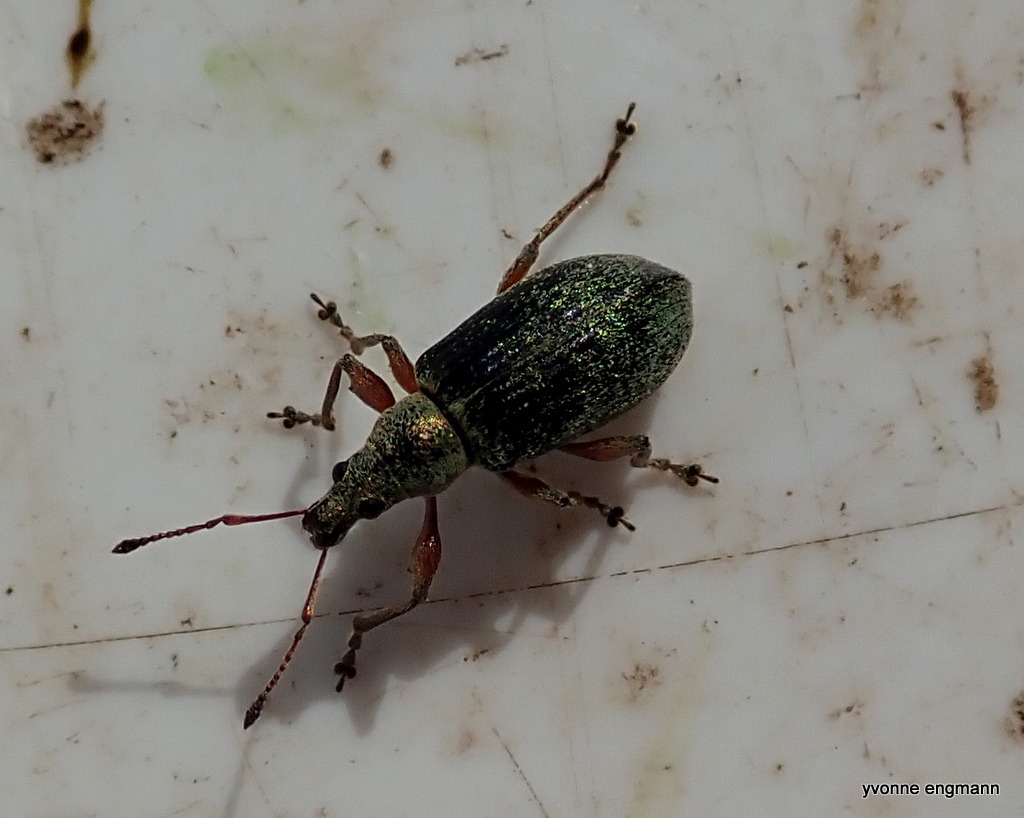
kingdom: Animalia
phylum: Arthropoda
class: Insecta
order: Coleoptera
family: Curculionidae
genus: Phyllobius
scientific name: Phyllobius pomaceus
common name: Green nettle weevil
